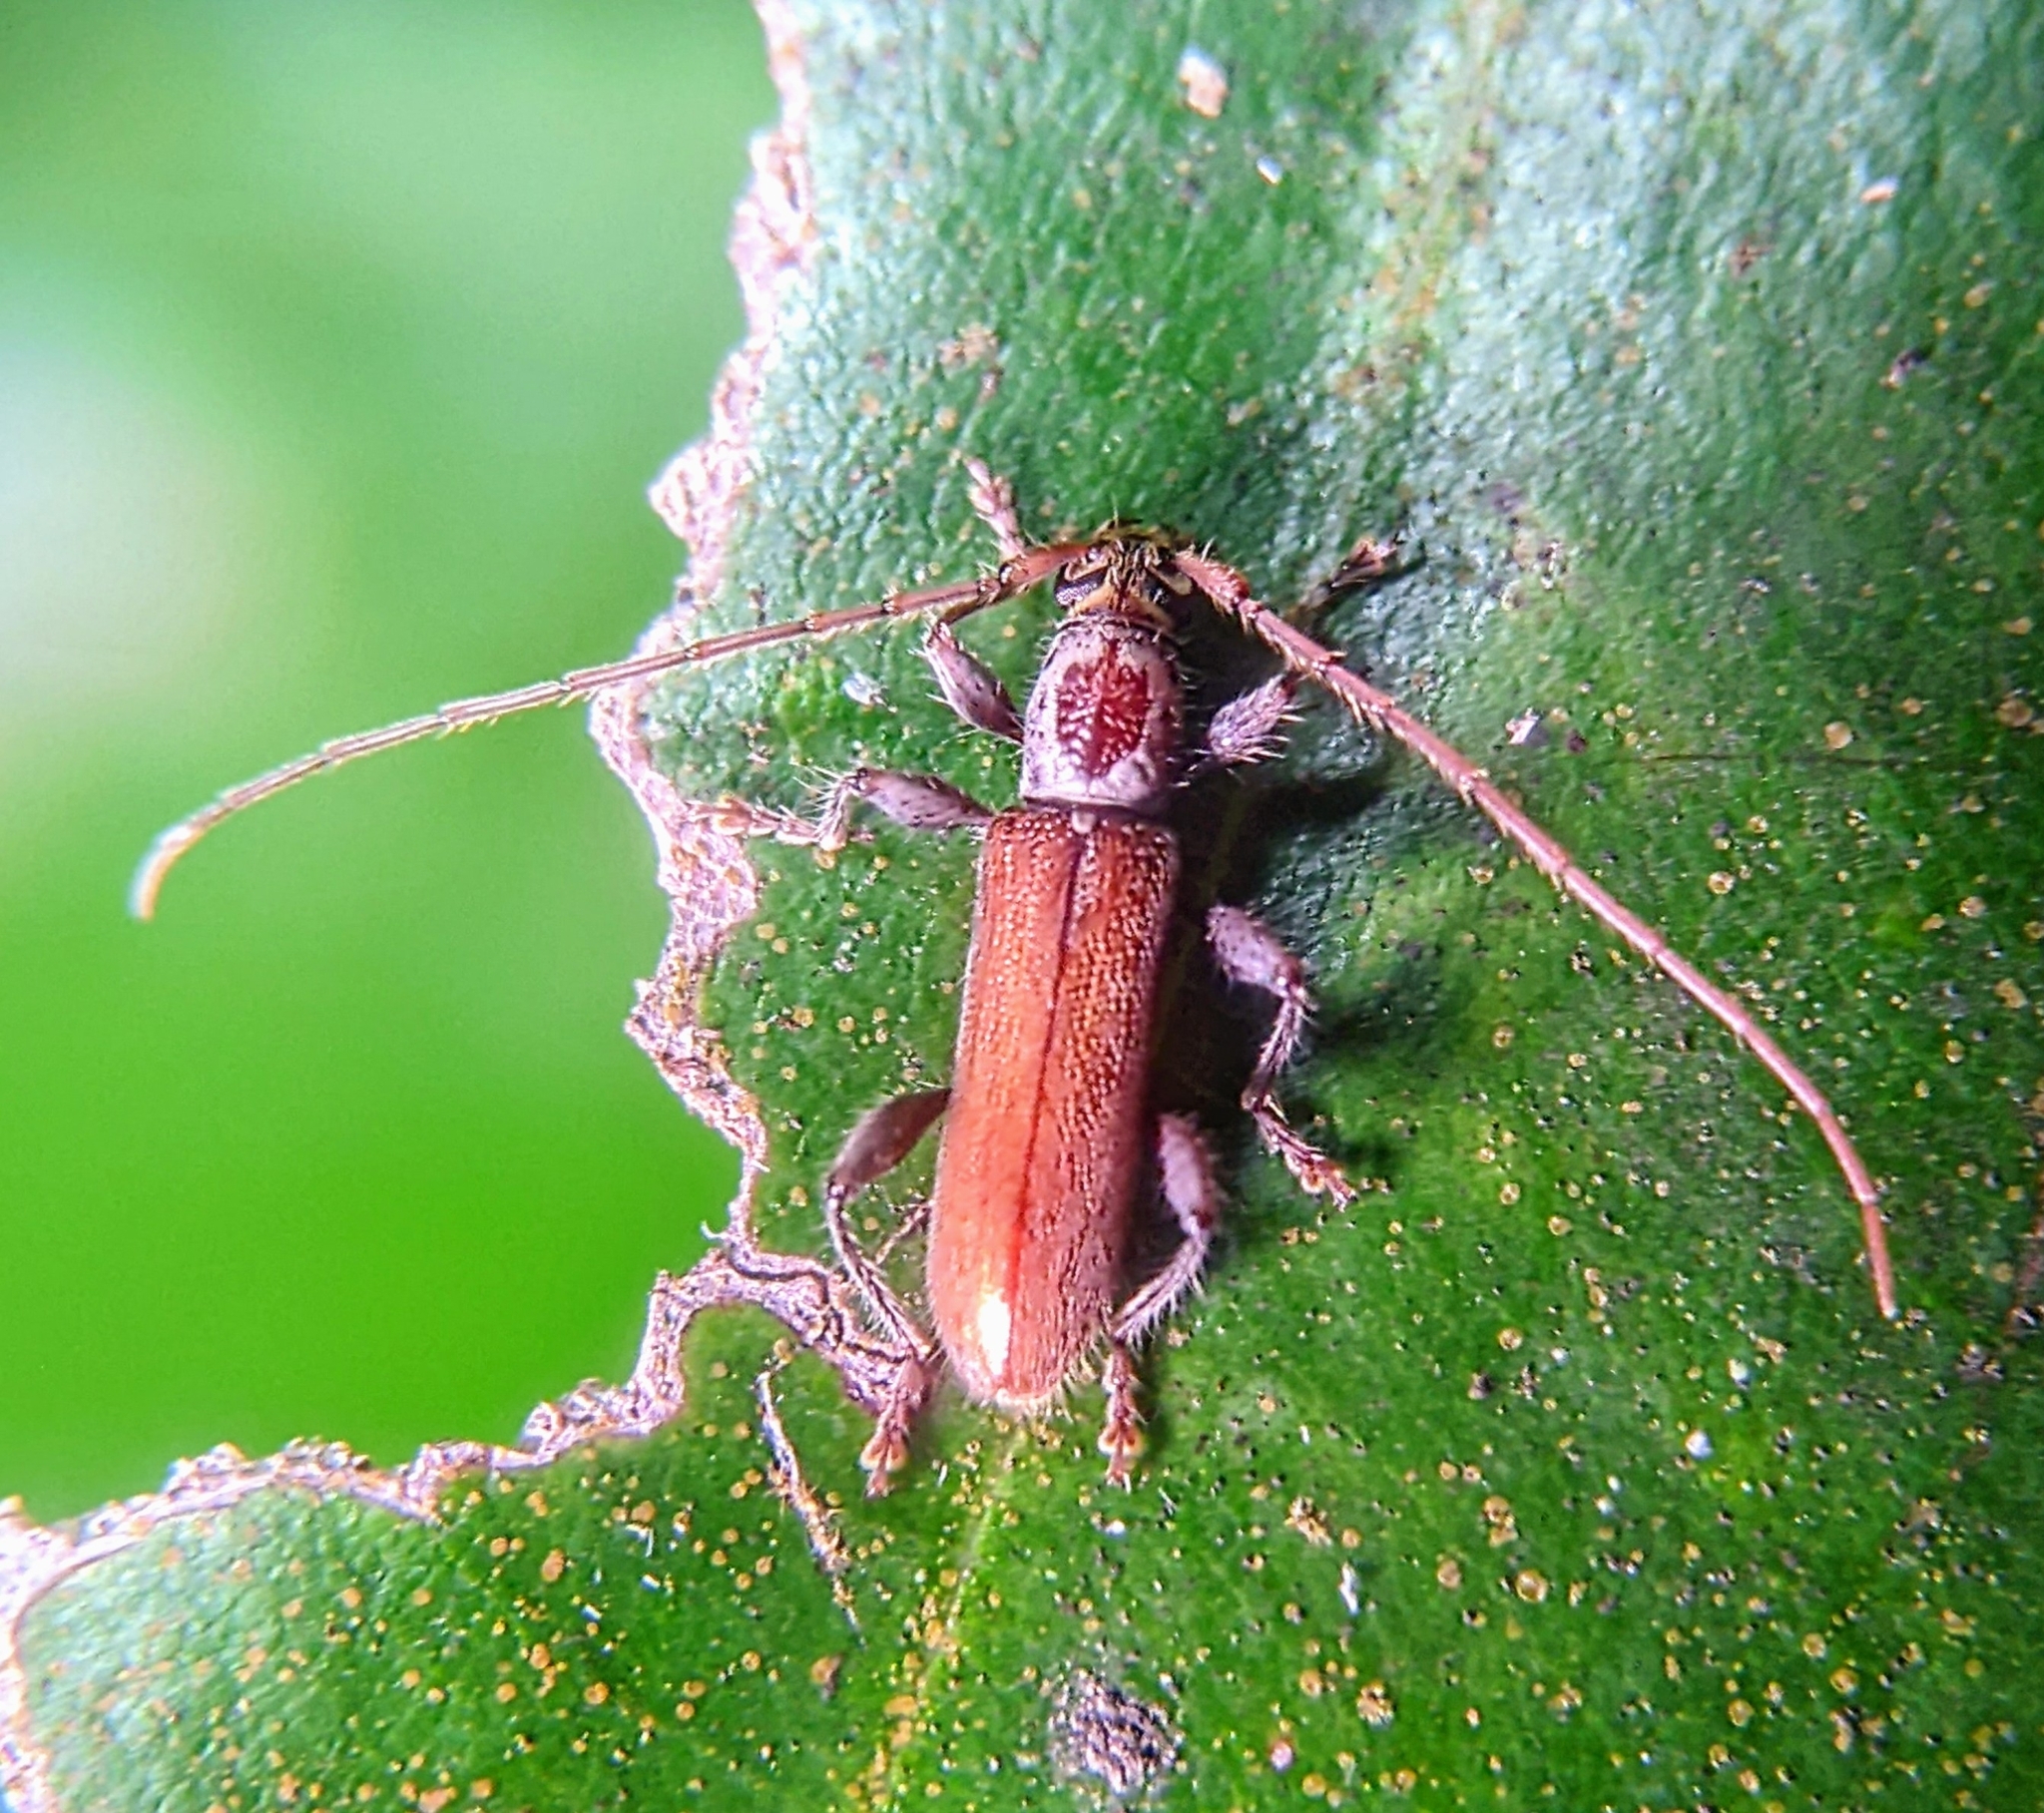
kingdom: Animalia
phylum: Arthropoda
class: Insecta
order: Coleoptera
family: Cerambycidae
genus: Ceresium
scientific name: Ceresium zeylanicum
